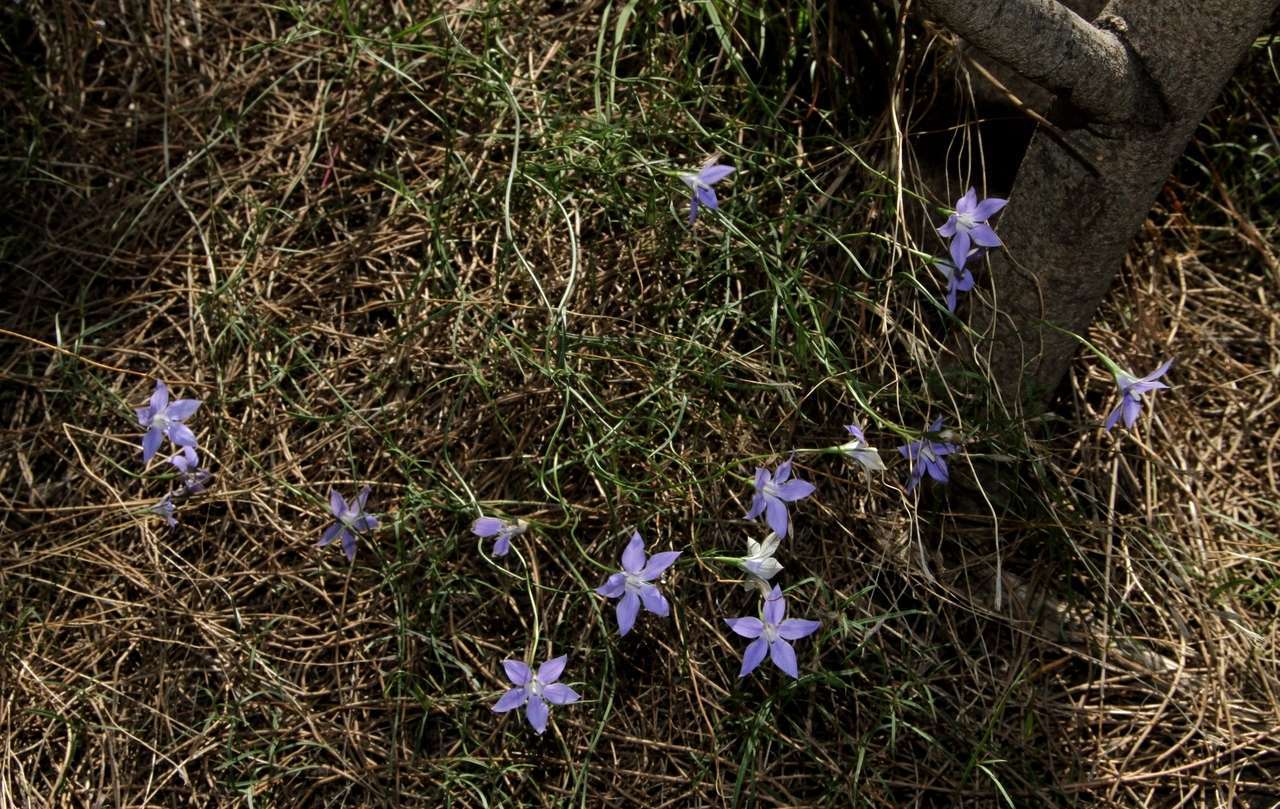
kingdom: Plantae
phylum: Tracheophyta
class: Magnoliopsida
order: Asterales
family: Campanulaceae
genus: Wahlenbergia
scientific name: Wahlenbergia luteola
